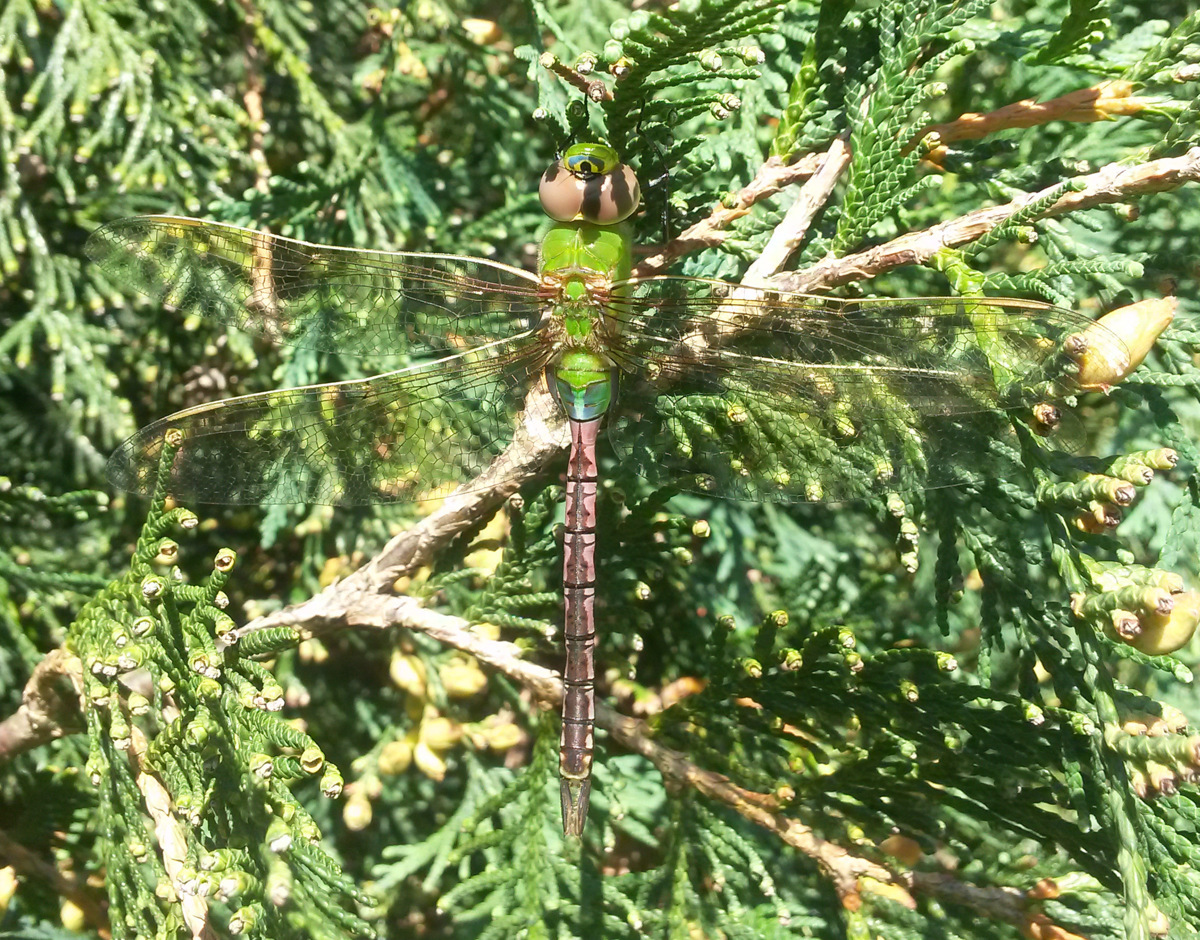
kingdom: Animalia
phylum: Arthropoda
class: Insecta
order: Odonata
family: Aeshnidae
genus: Anax
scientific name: Anax junius
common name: Common green darner
